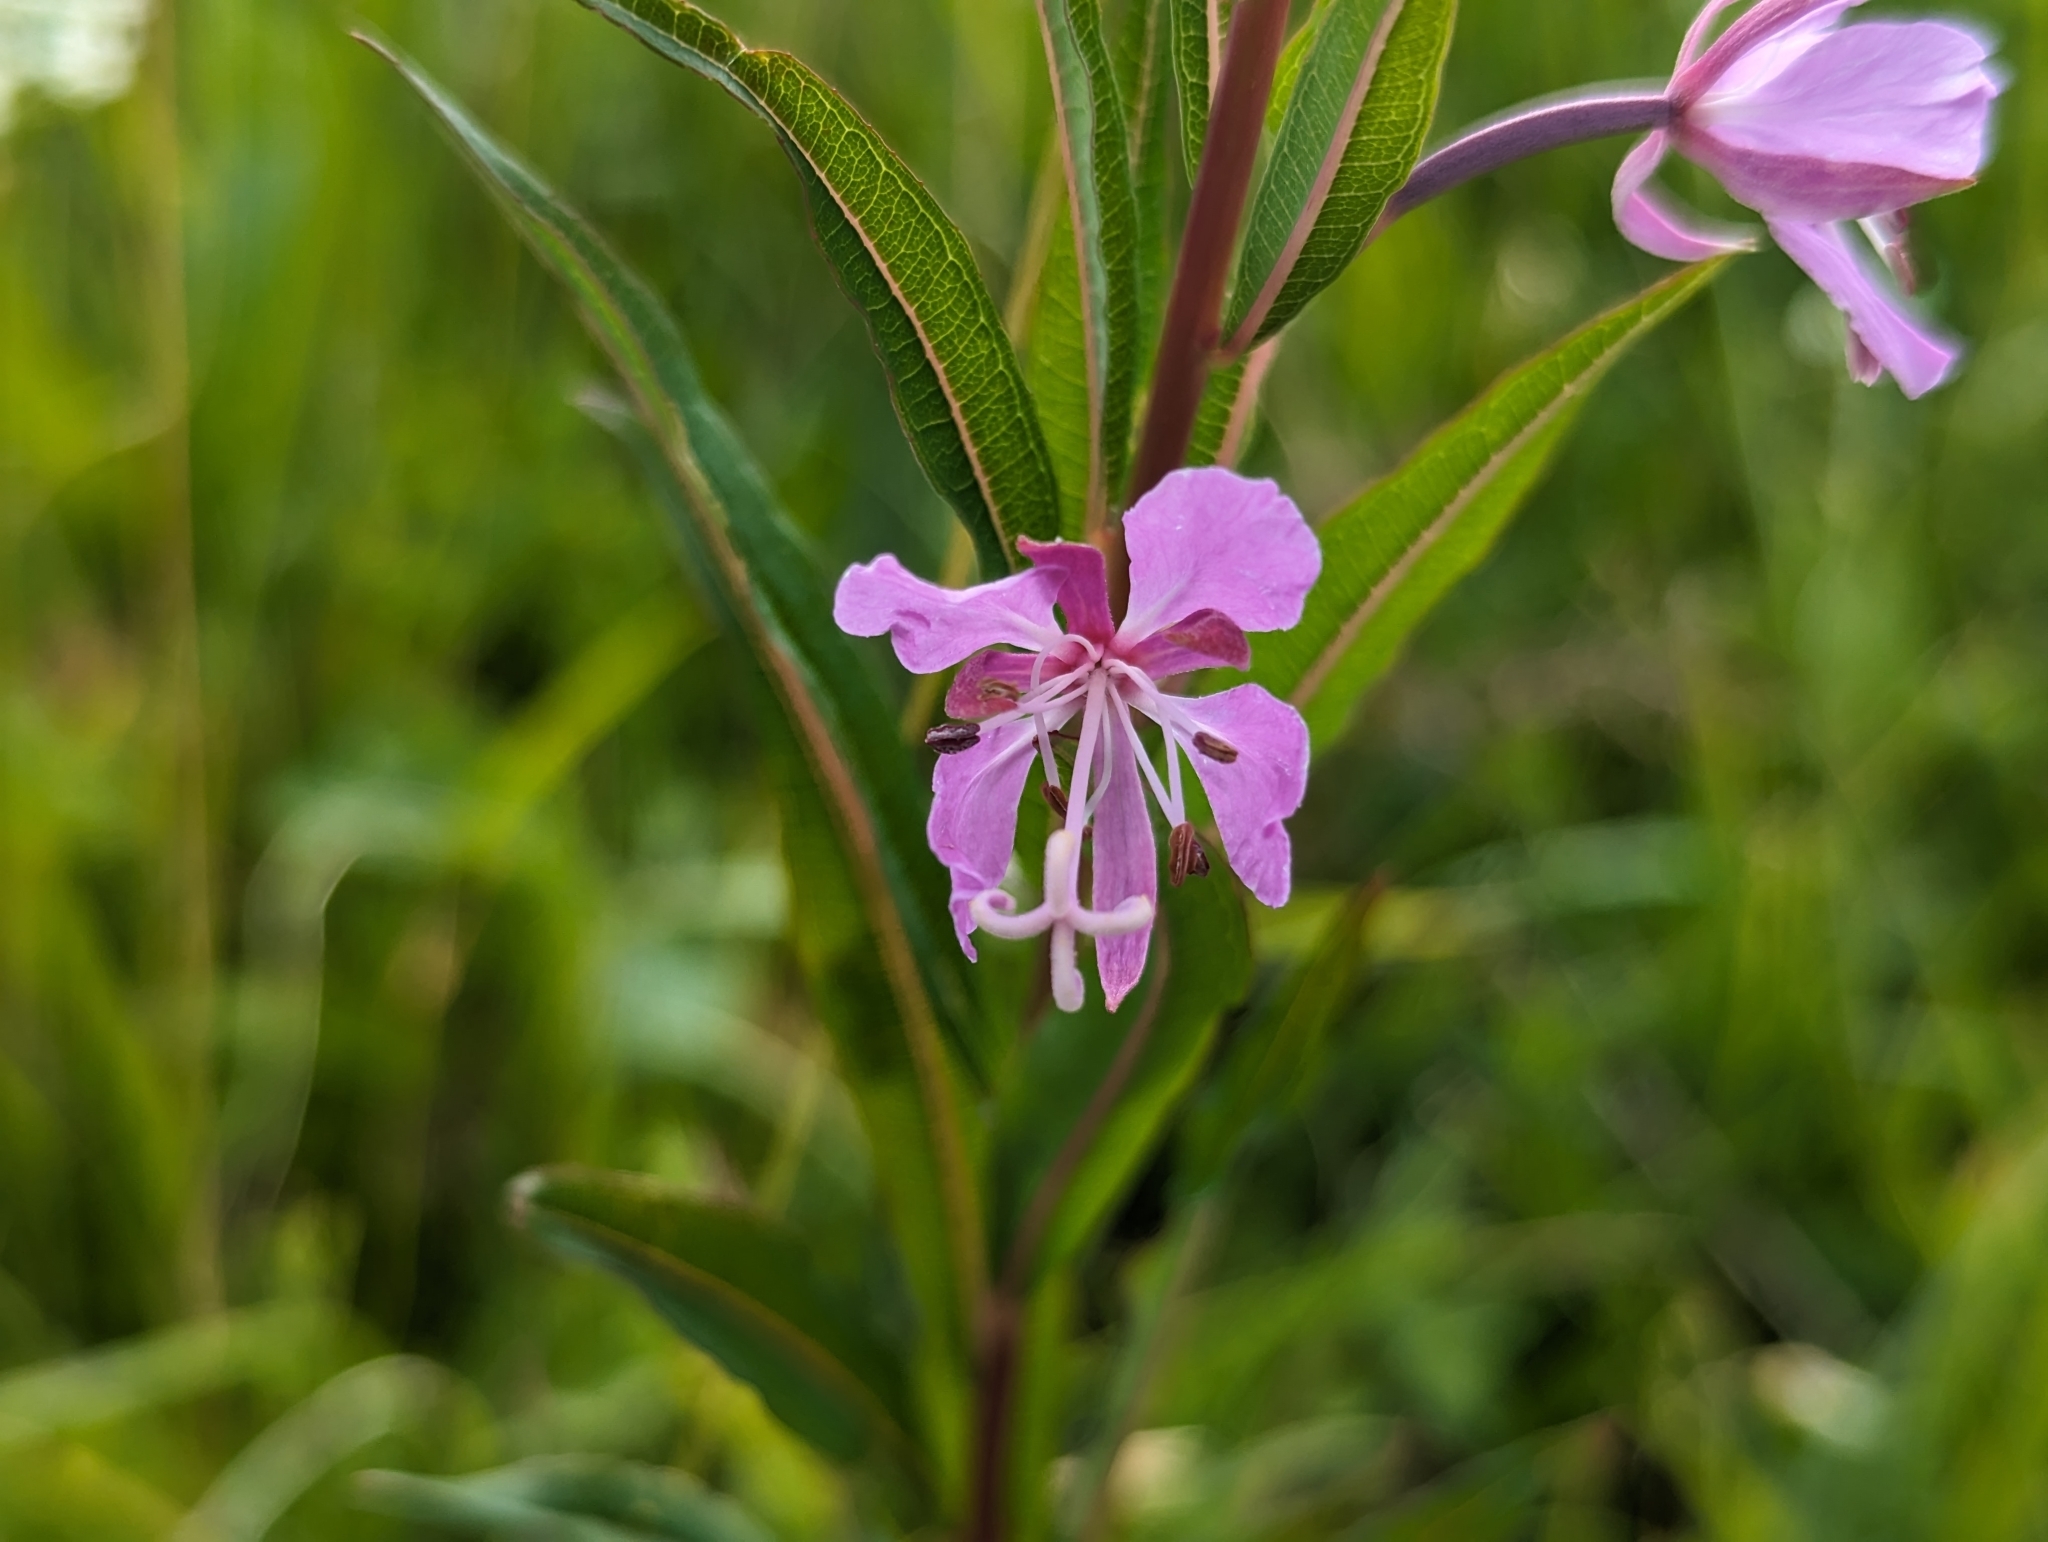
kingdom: Plantae
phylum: Tracheophyta
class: Magnoliopsida
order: Myrtales
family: Onagraceae
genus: Chamaenerion
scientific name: Chamaenerion angustifolium
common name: Fireweed
